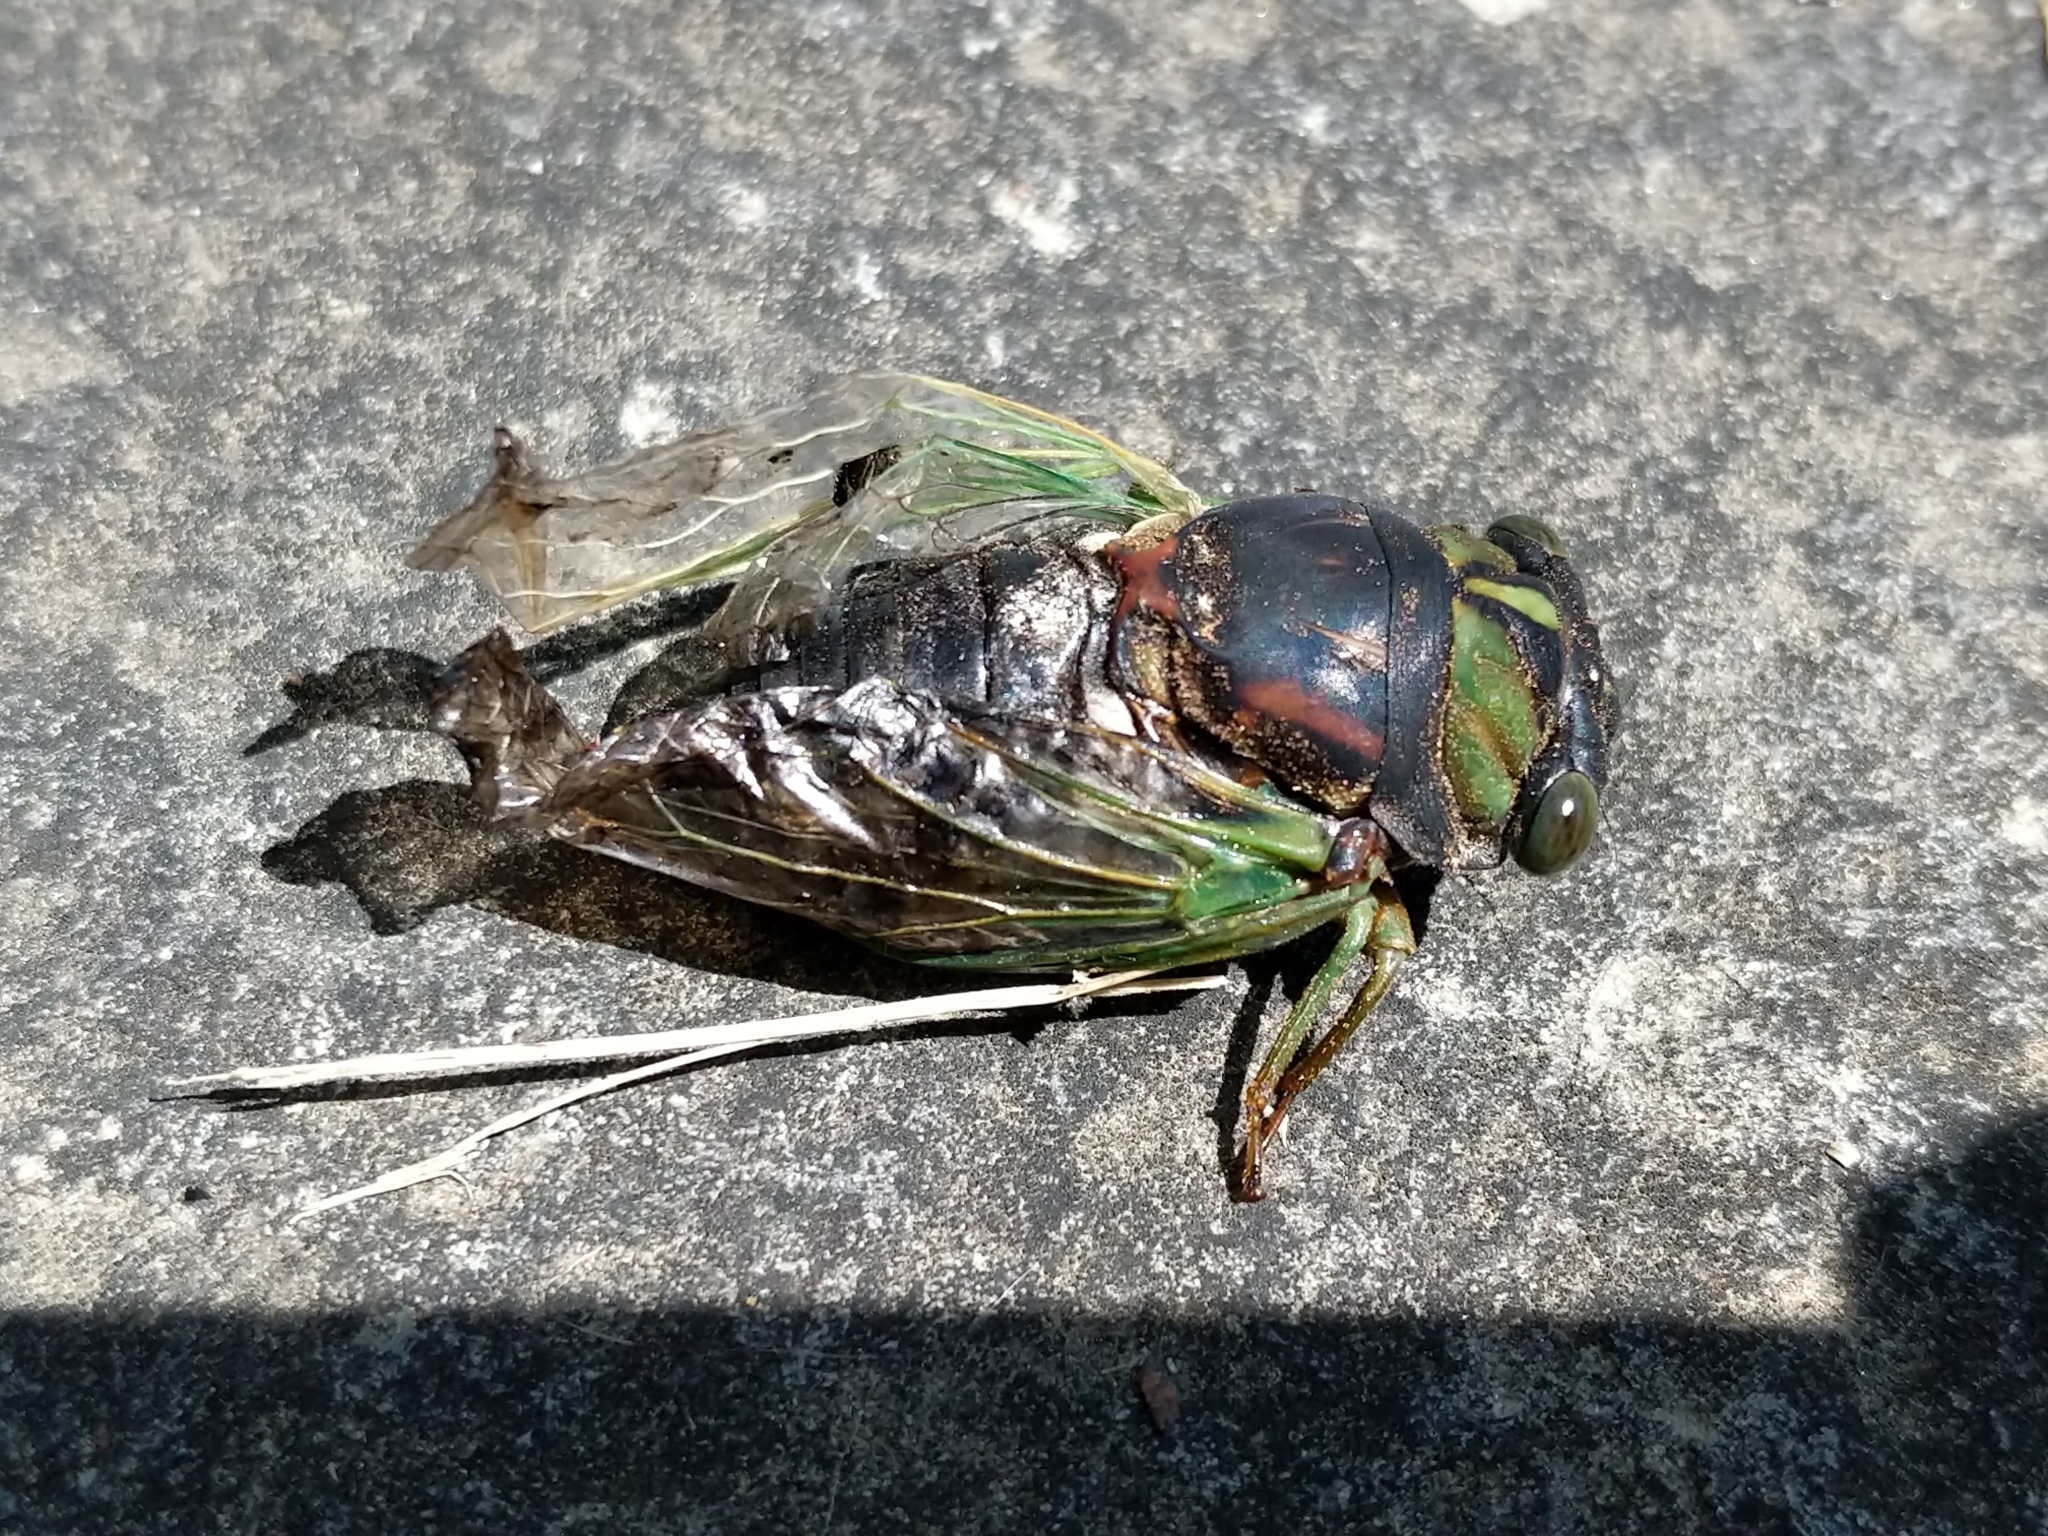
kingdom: Animalia
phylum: Arthropoda
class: Insecta
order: Hemiptera
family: Cicadidae
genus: Neotibicen
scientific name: Neotibicen tibicen
